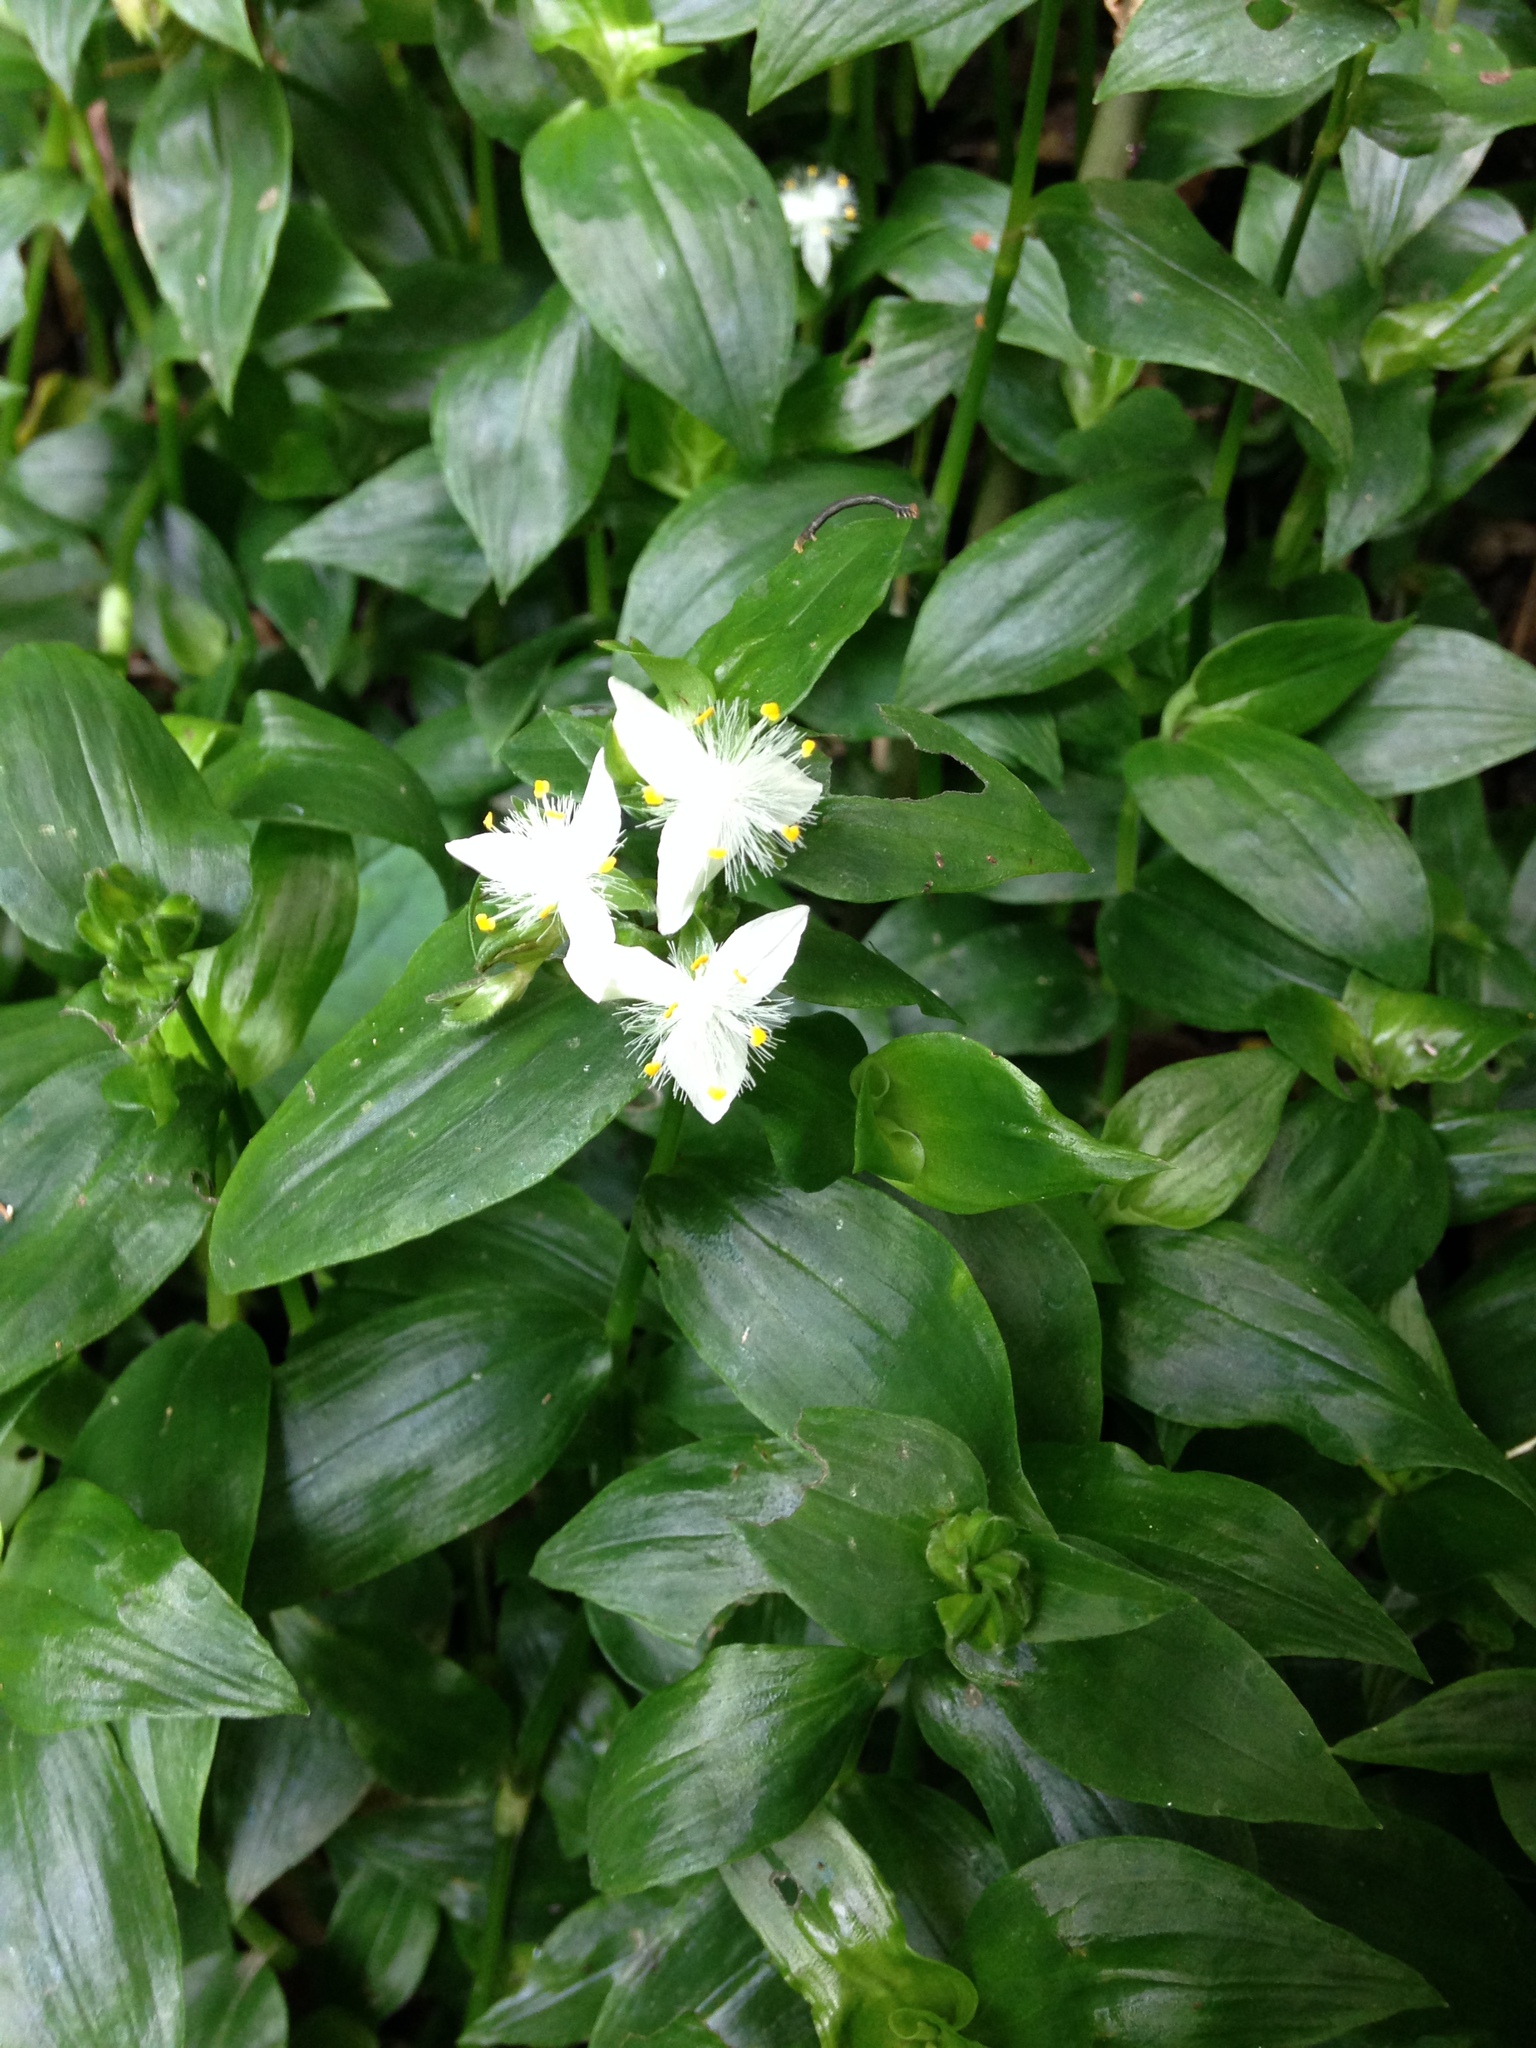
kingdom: Plantae
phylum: Tracheophyta
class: Liliopsida
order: Commelinales
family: Commelinaceae
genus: Tradescantia
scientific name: Tradescantia fluminensis
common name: Wandering-jew
